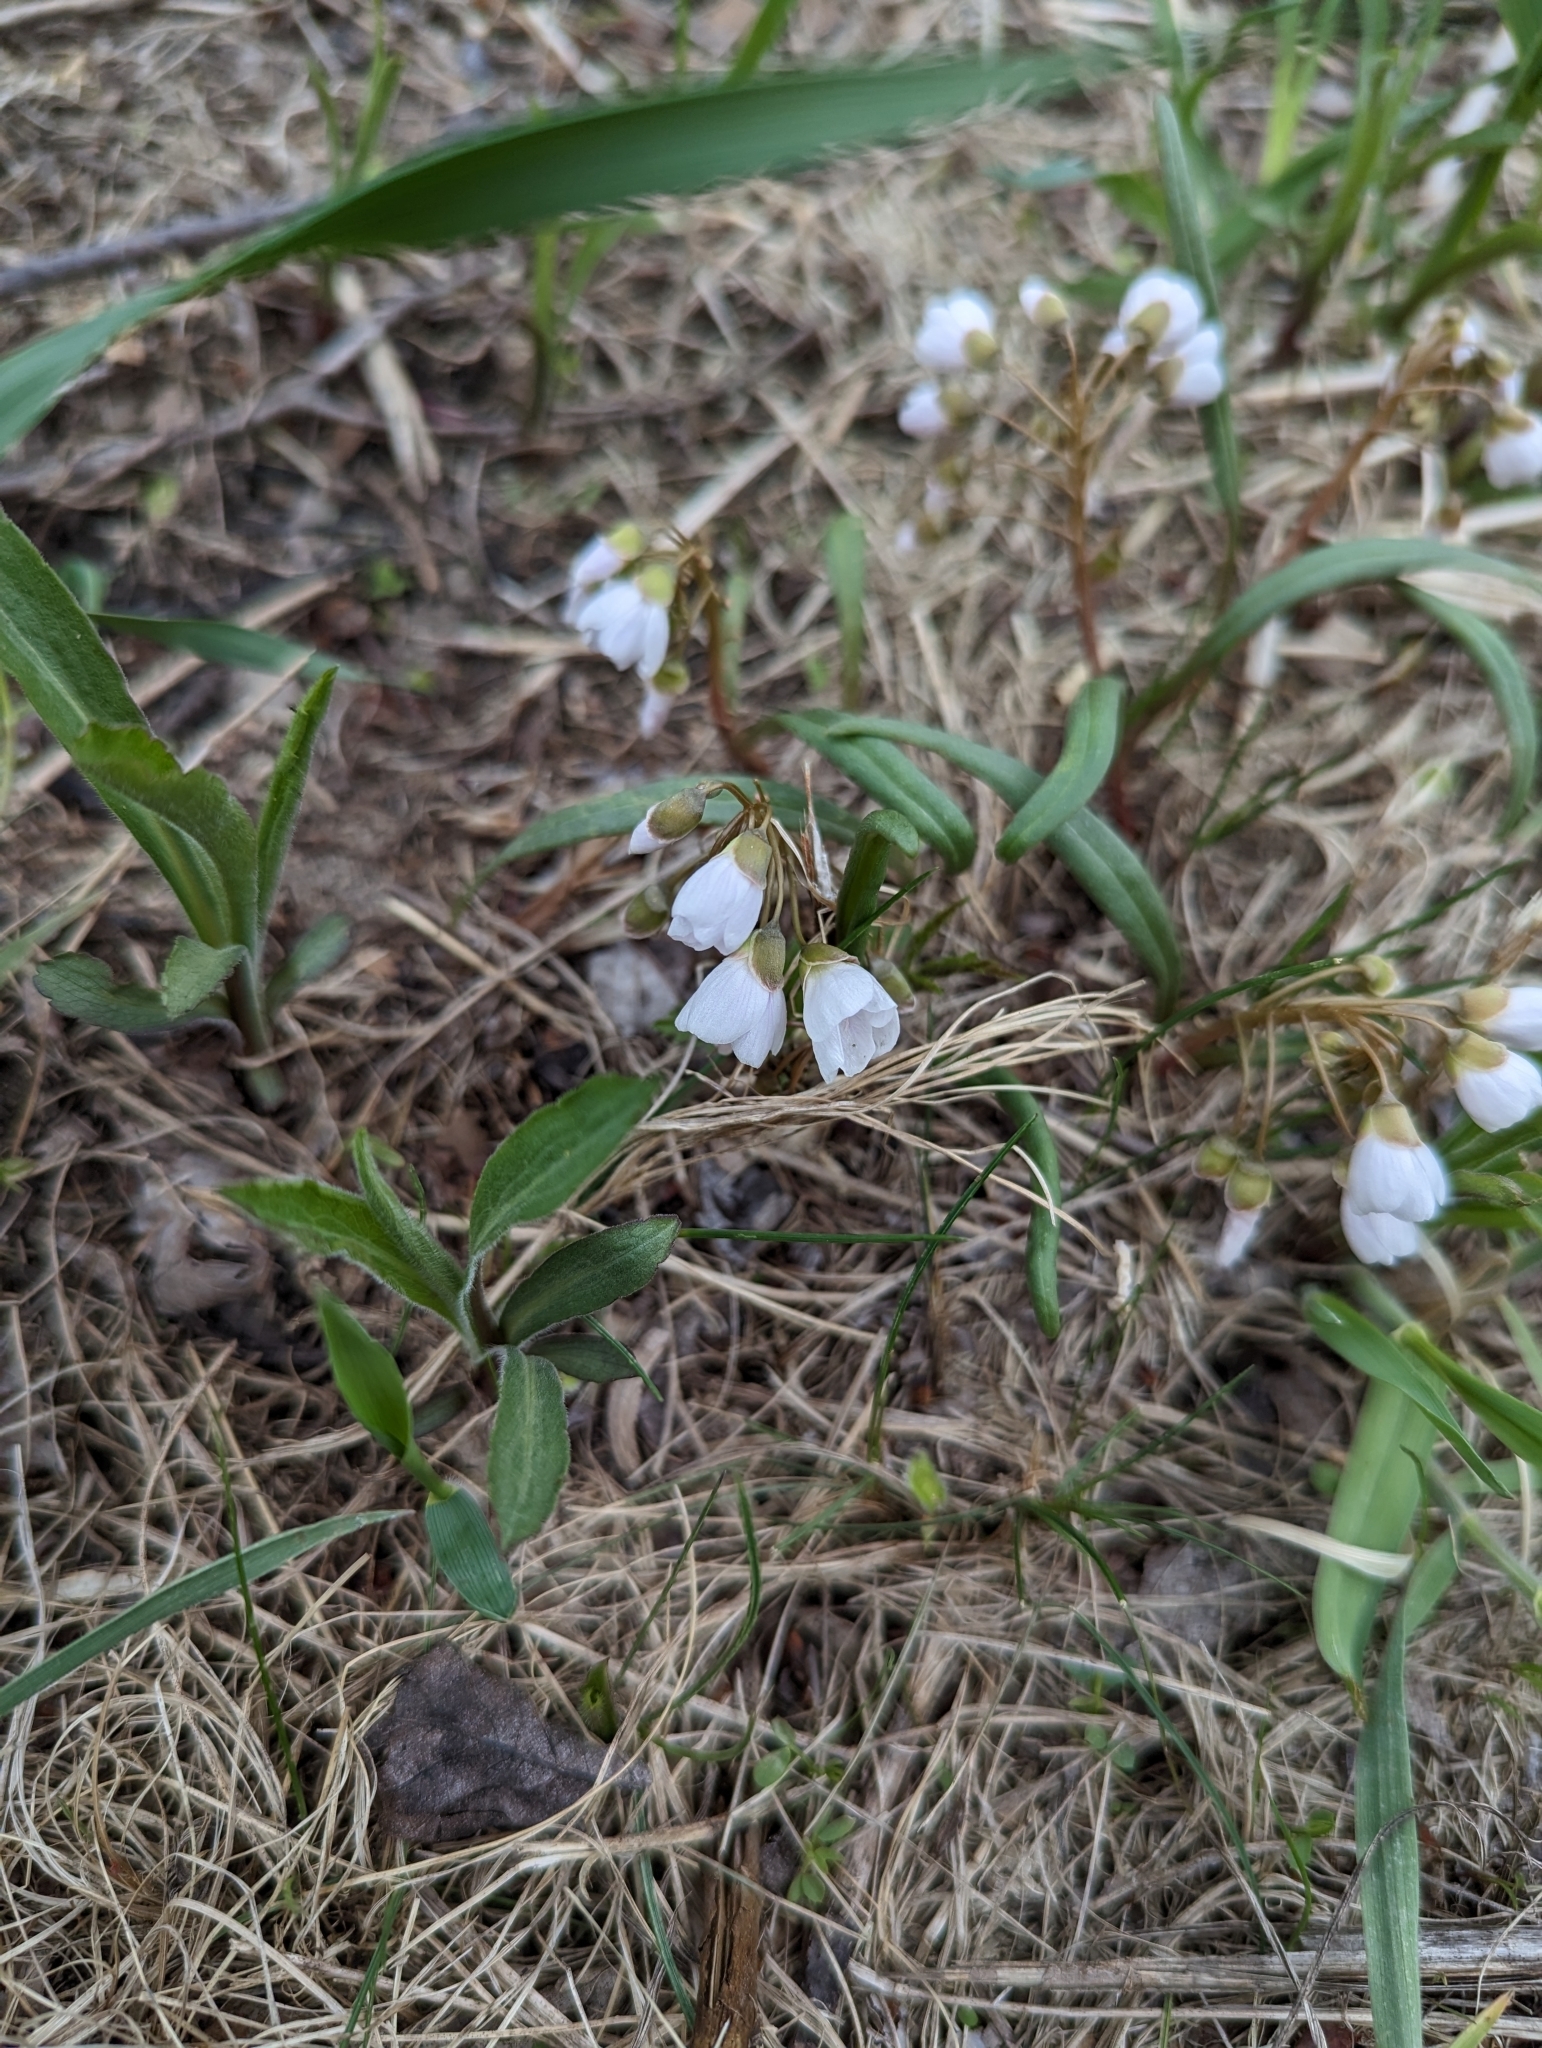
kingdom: Plantae
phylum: Tracheophyta
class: Magnoliopsida
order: Caryophyllales
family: Montiaceae
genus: Claytonia
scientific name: Claytonia virginica
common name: Virginia springbeauty
